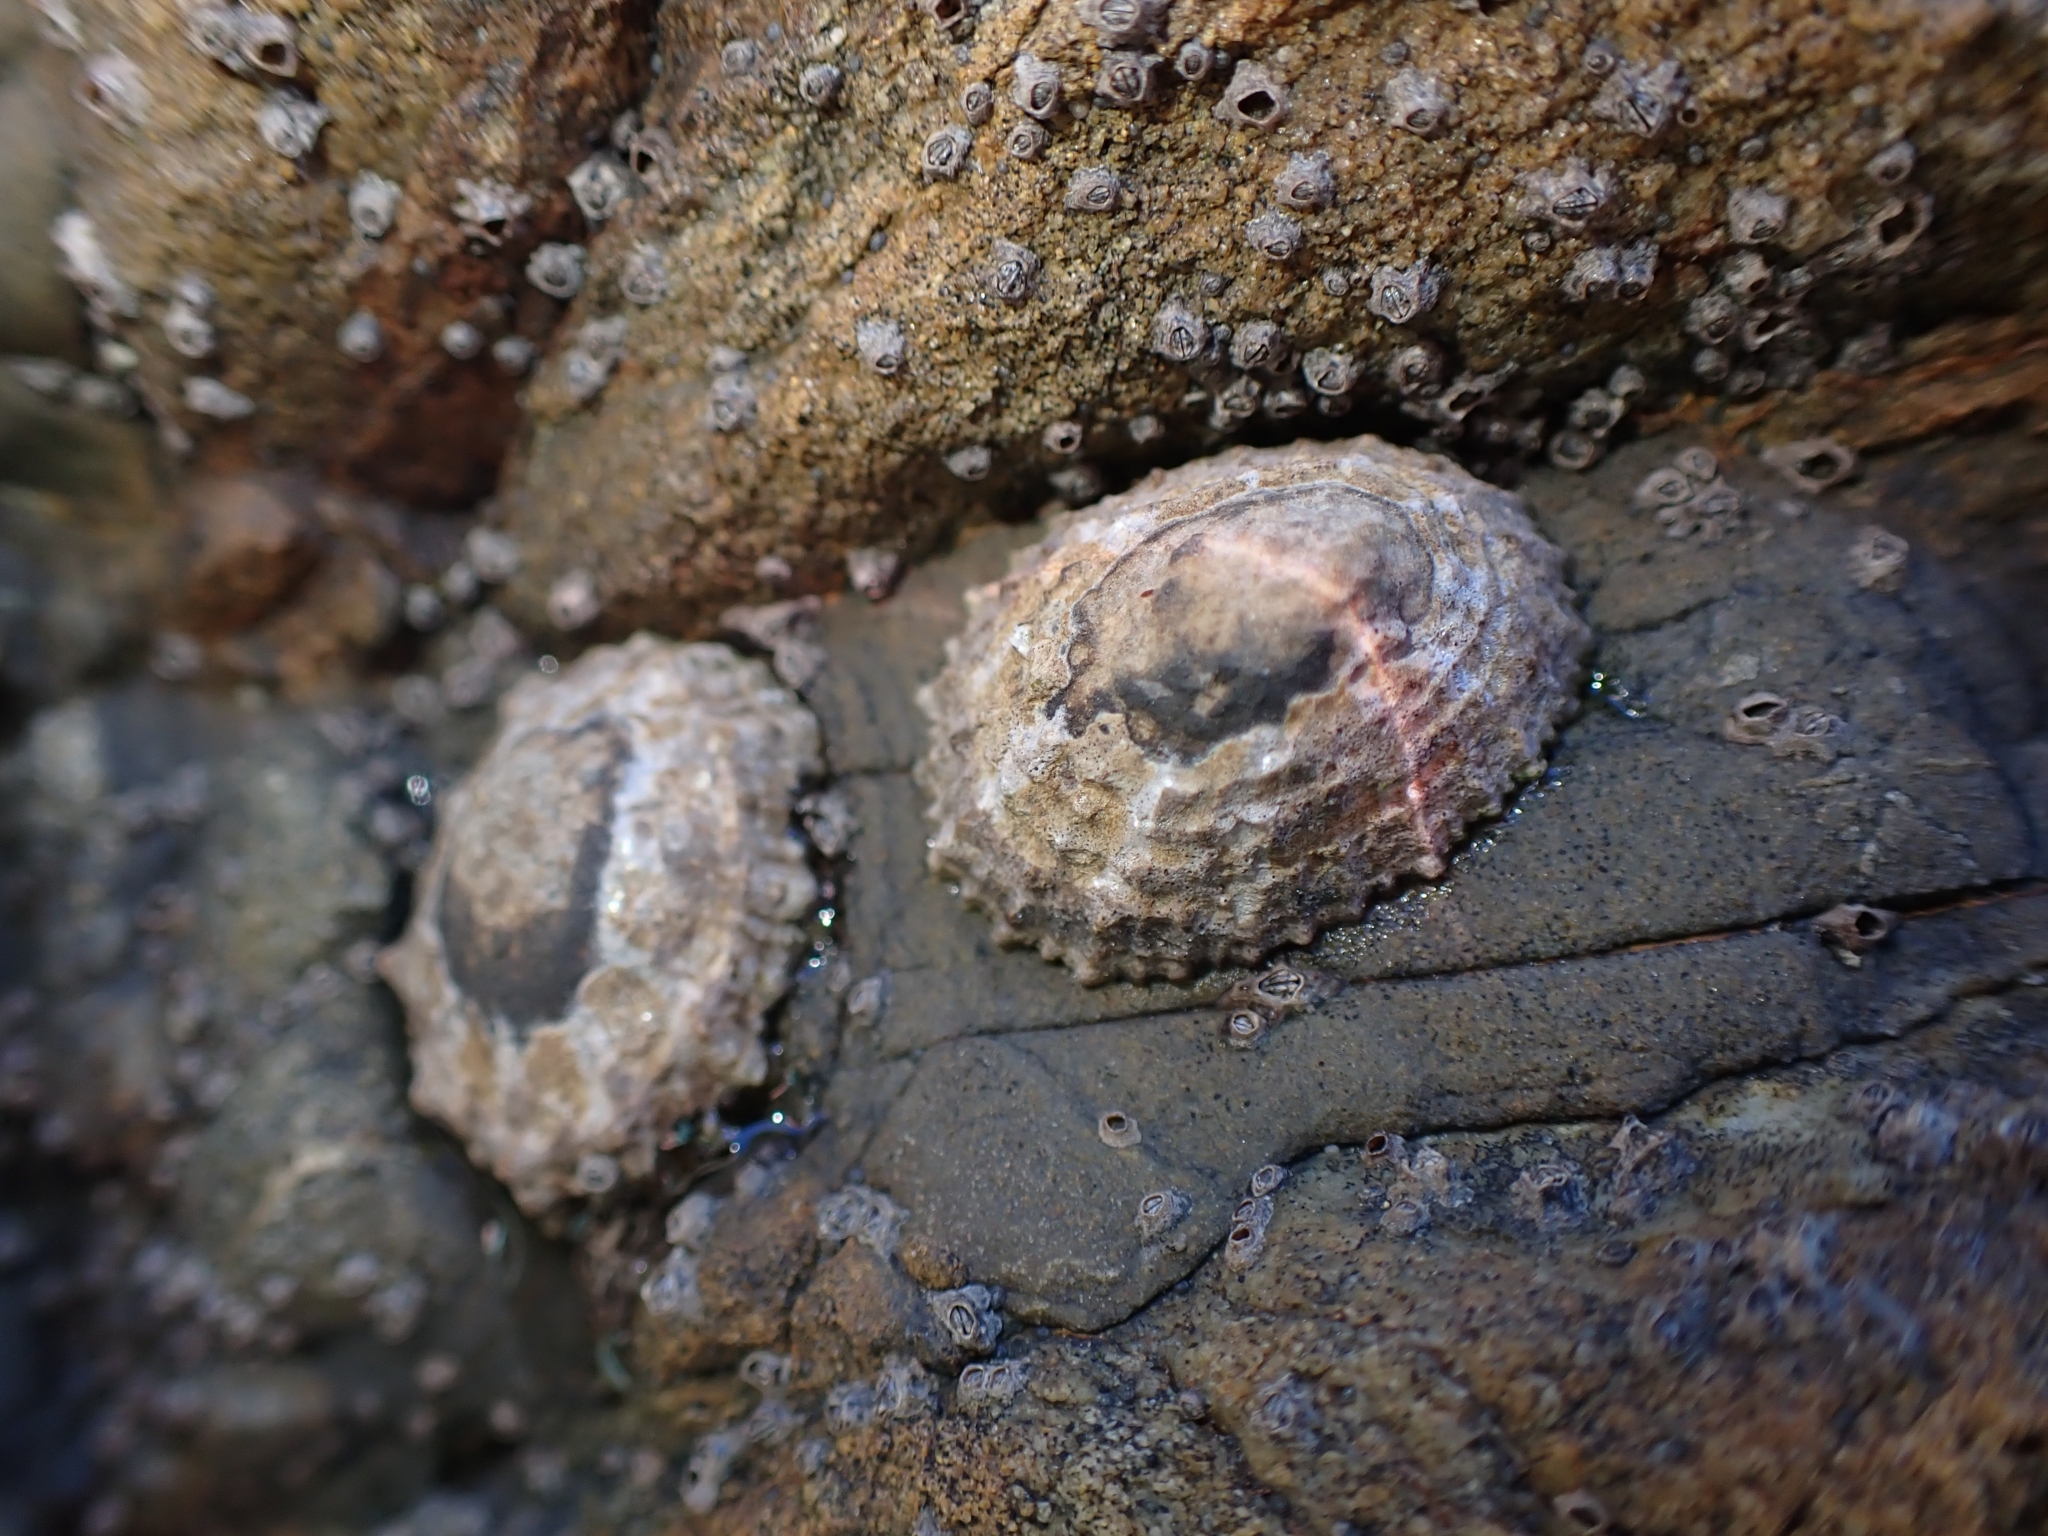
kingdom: Animalia
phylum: Mollusca
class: Gastropoda
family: Nacellidae
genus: Cellana
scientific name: Cellana ornata
